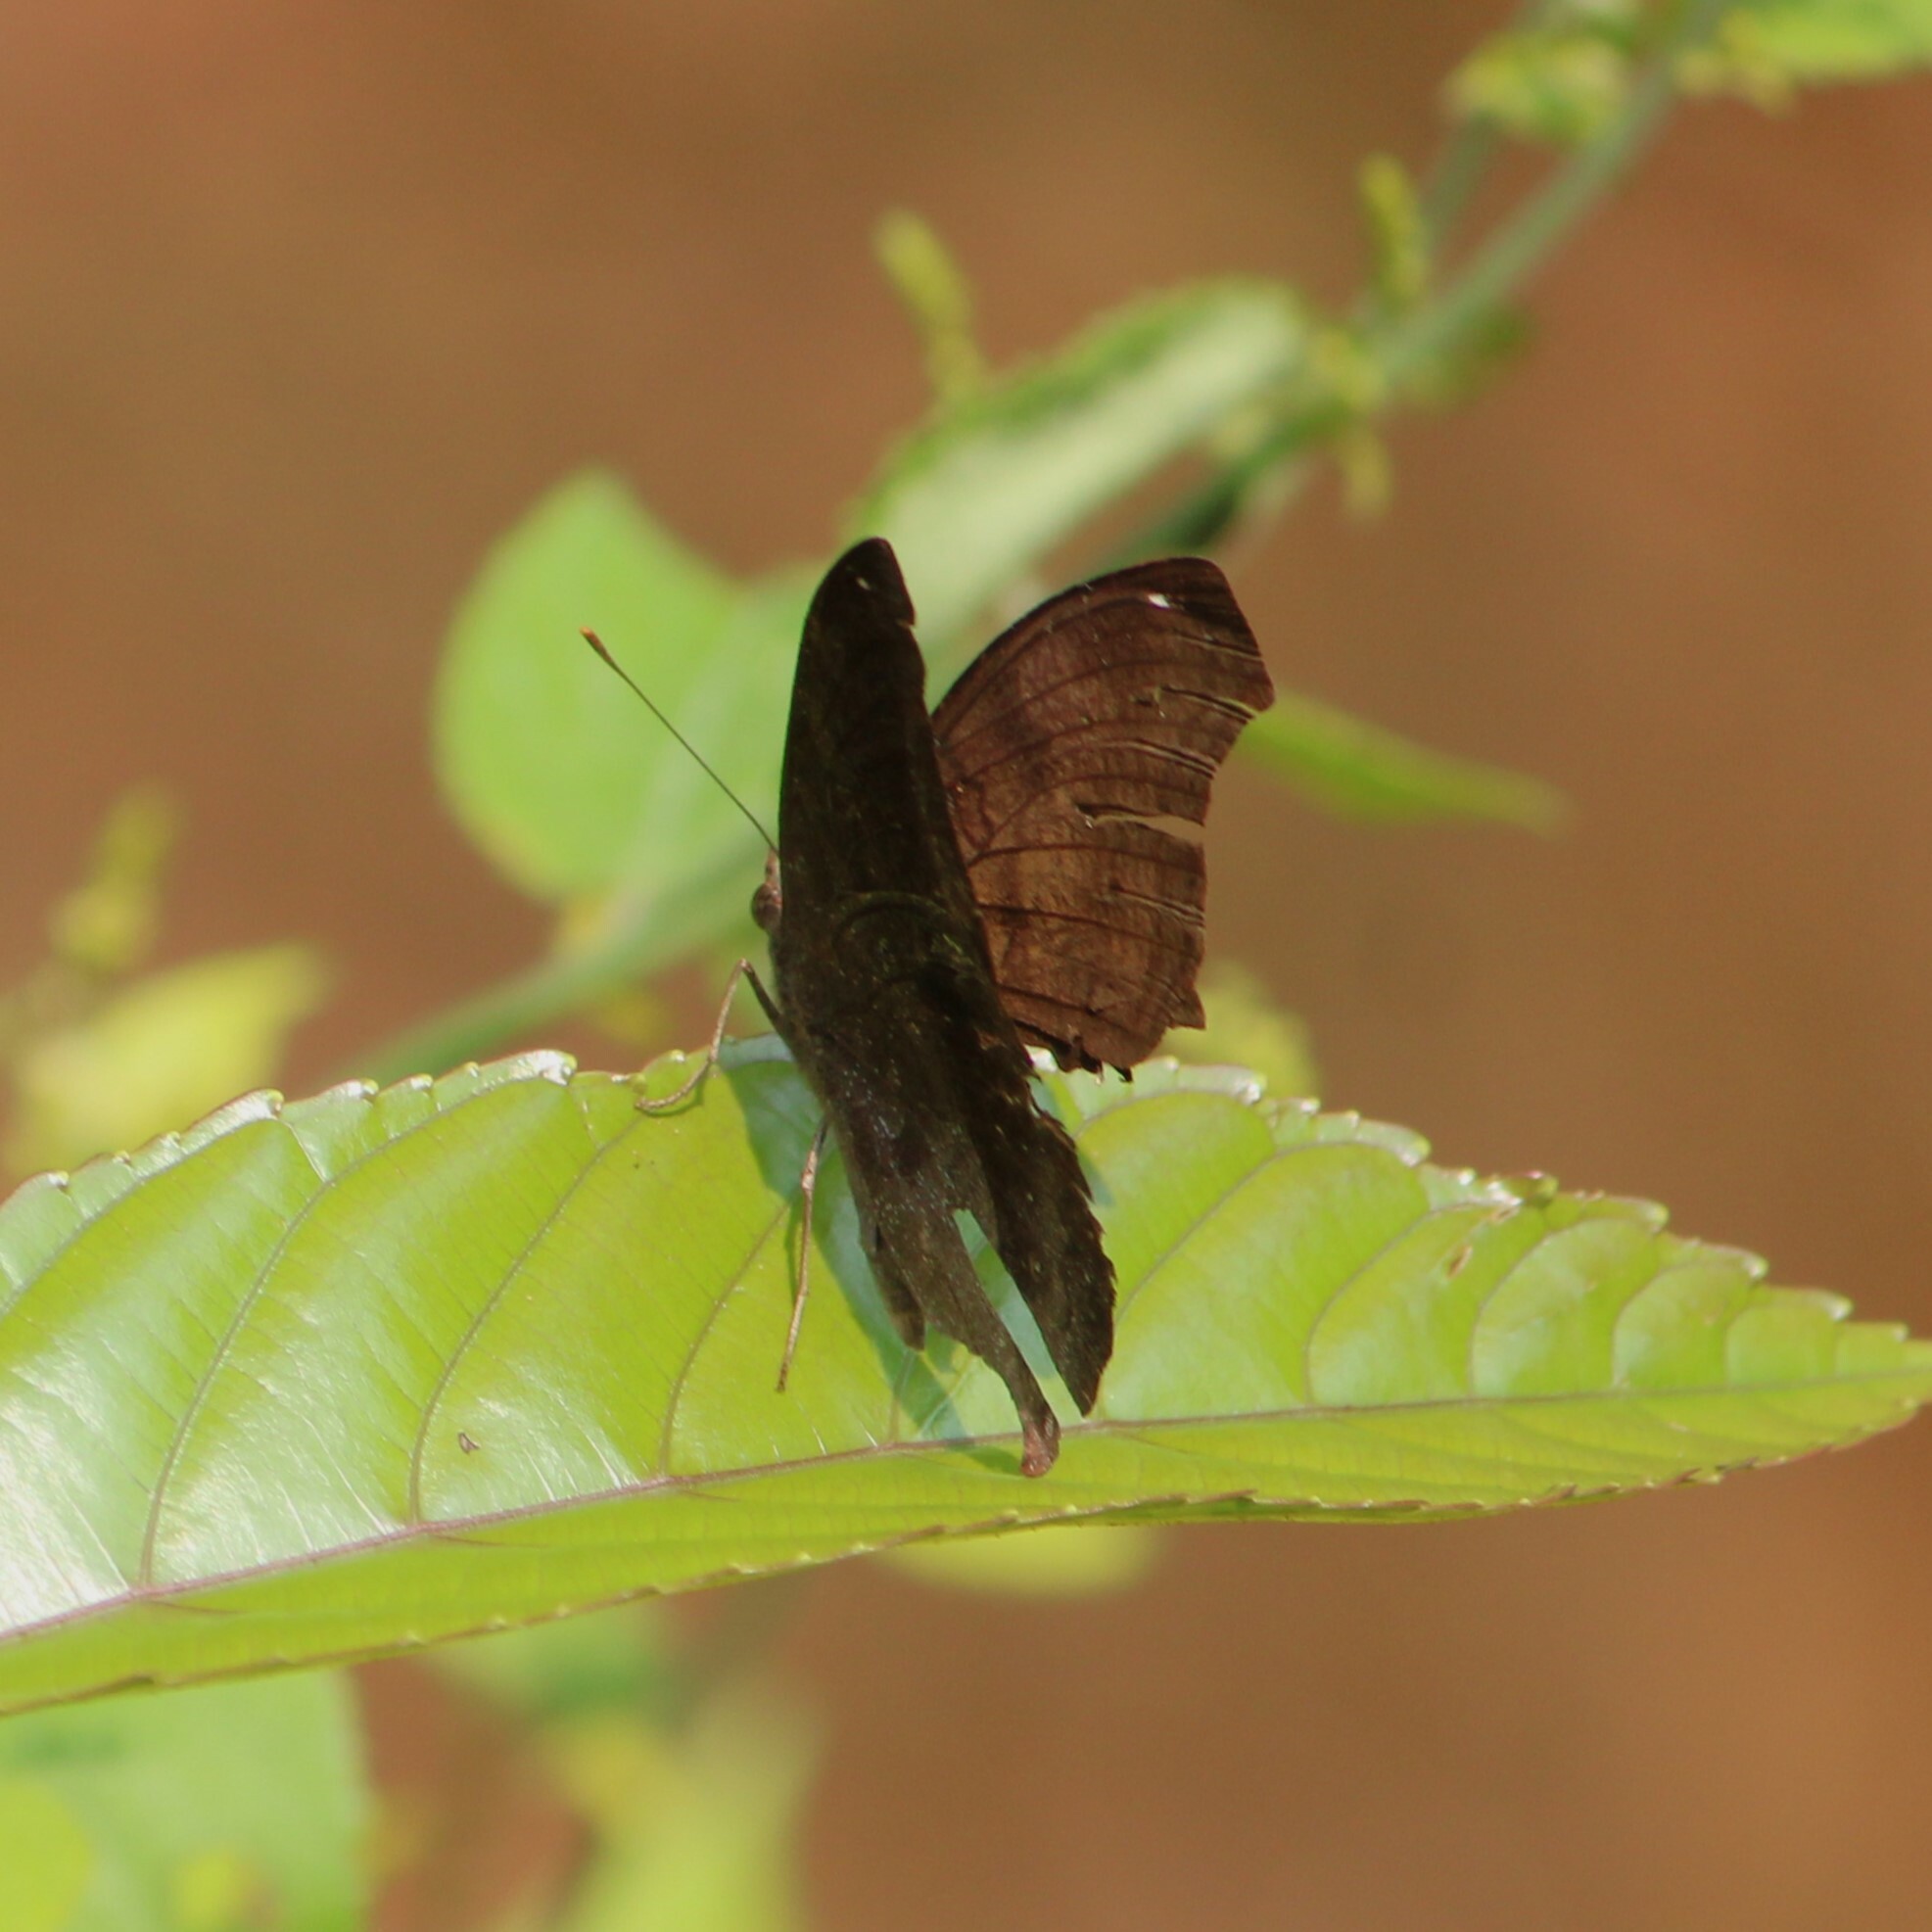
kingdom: Animalia
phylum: Arthropoda
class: Insecta
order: Lepidoptera
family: Nymphalidae
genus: Junonia
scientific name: Junonia iphita
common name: Chocolate pansy
